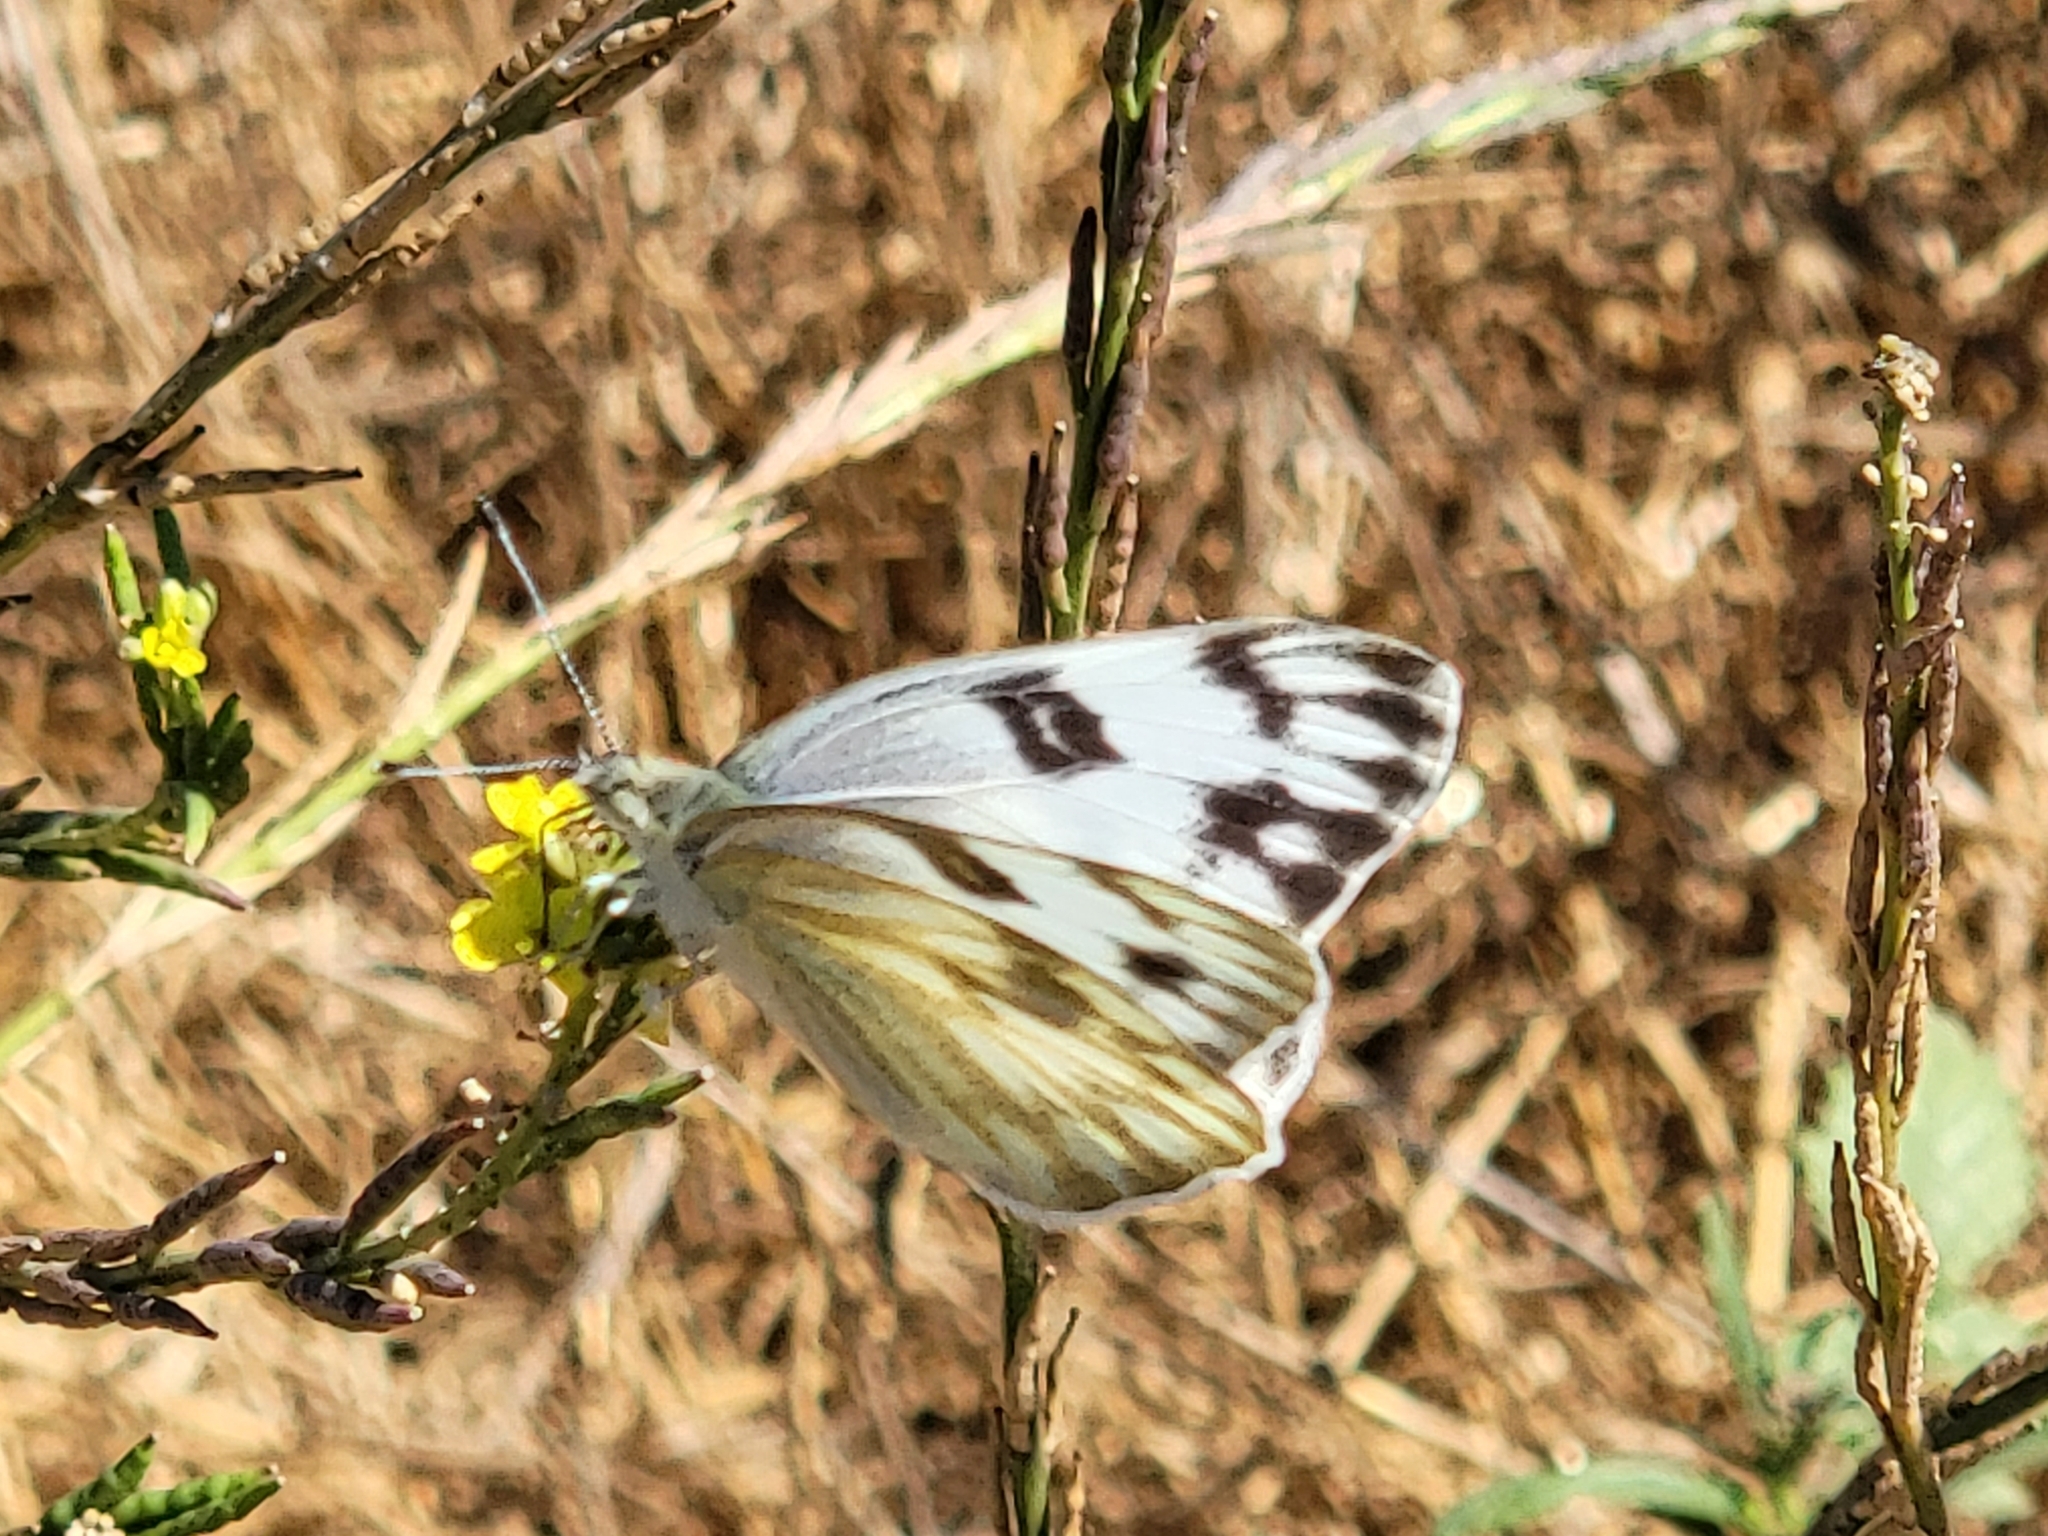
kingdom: Animalia
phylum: Arthropoda
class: Insecta
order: Lepidoptera
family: Pieridae
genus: Pontia
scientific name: Pontia protodice
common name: Checkered white
